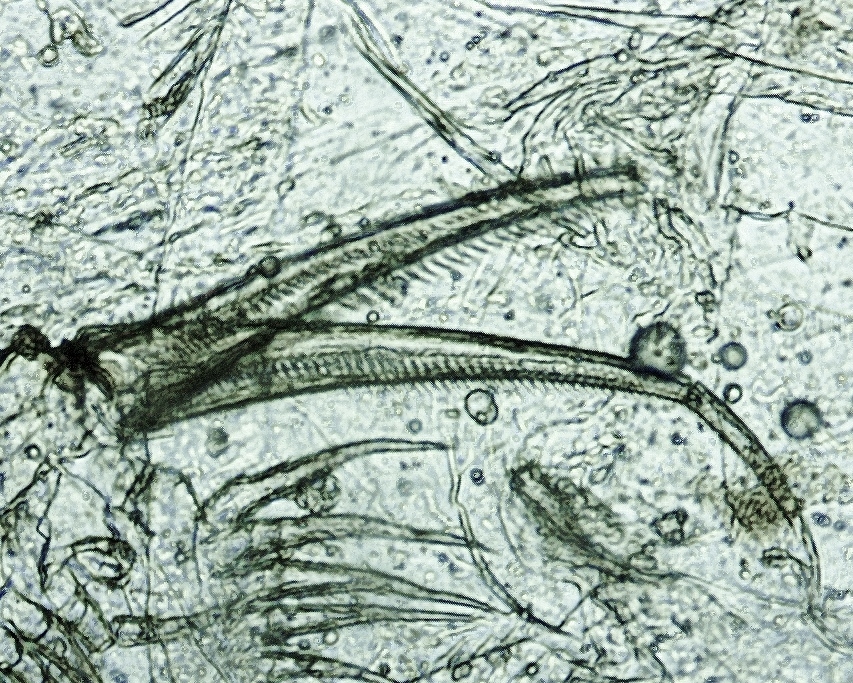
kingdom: Animalia
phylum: Arthropoda
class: Branchiopoda
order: Diplostraca
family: Daphniidae
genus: Simocephalus
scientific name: Simocephalus serrulatus
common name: Water flea
